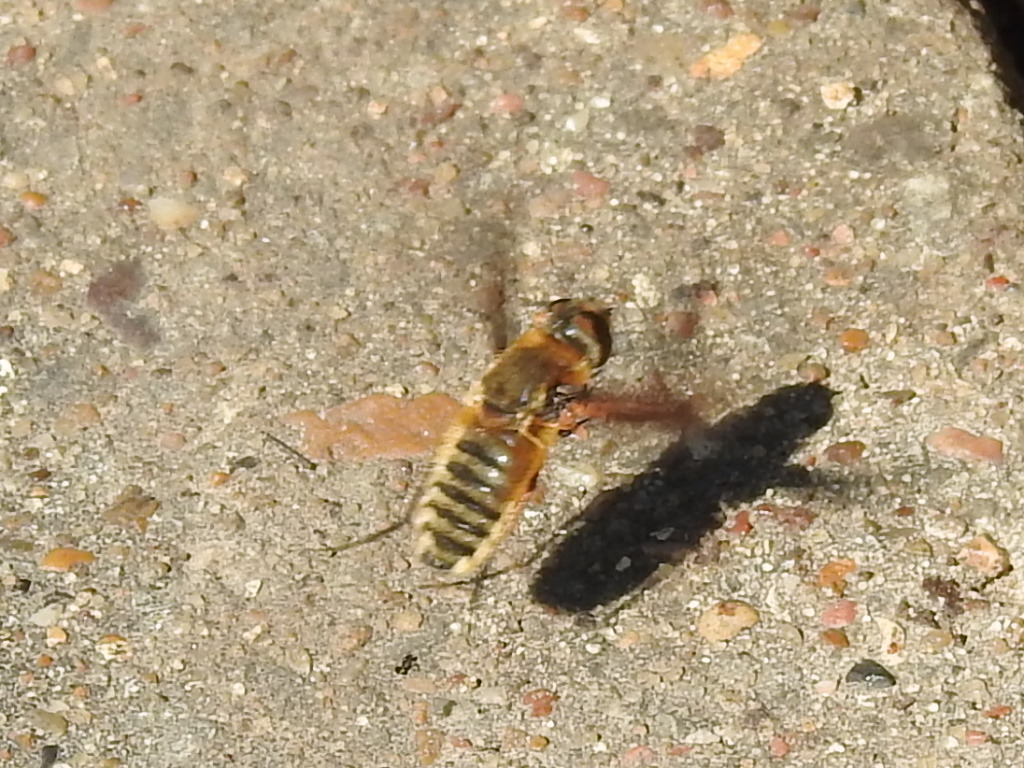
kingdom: Animalia
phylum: Arthropoda
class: Insecta
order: Diptera
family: Bombyliidae
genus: Poecilanthrax
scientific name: Poecilanthrax lucifer
